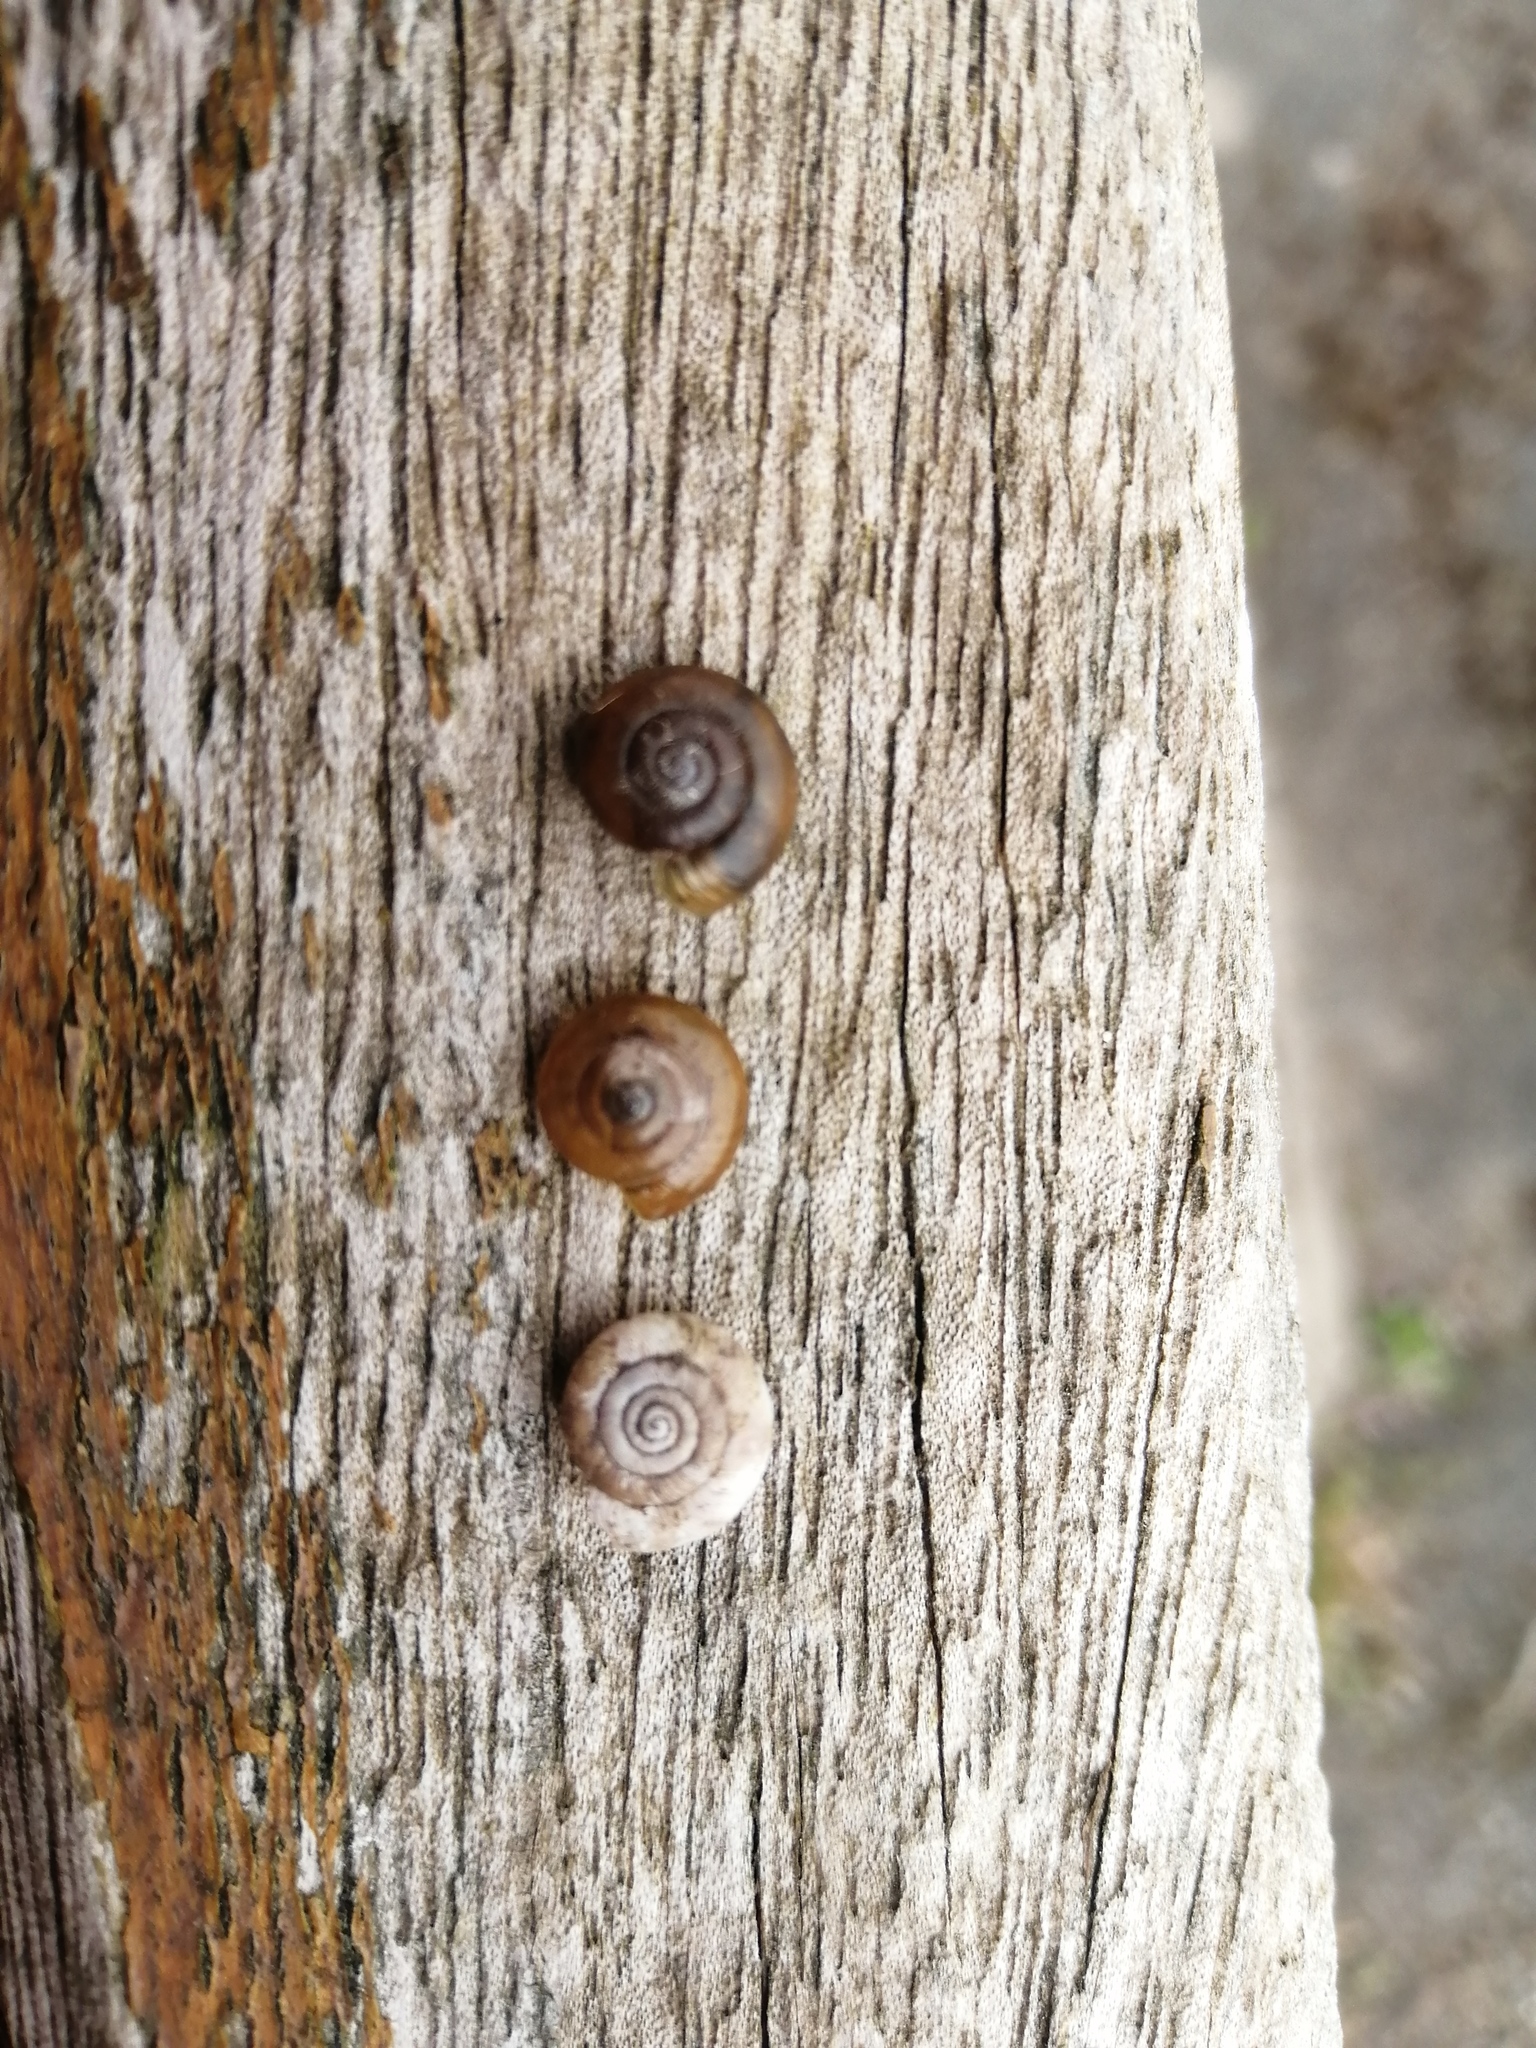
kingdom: Animalia
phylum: Mollusca
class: Gastropoda
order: Stylommatophora
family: Gastrodontidae
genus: Aegopinella
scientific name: Aegopinella nitidula
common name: Smooth glass snail
